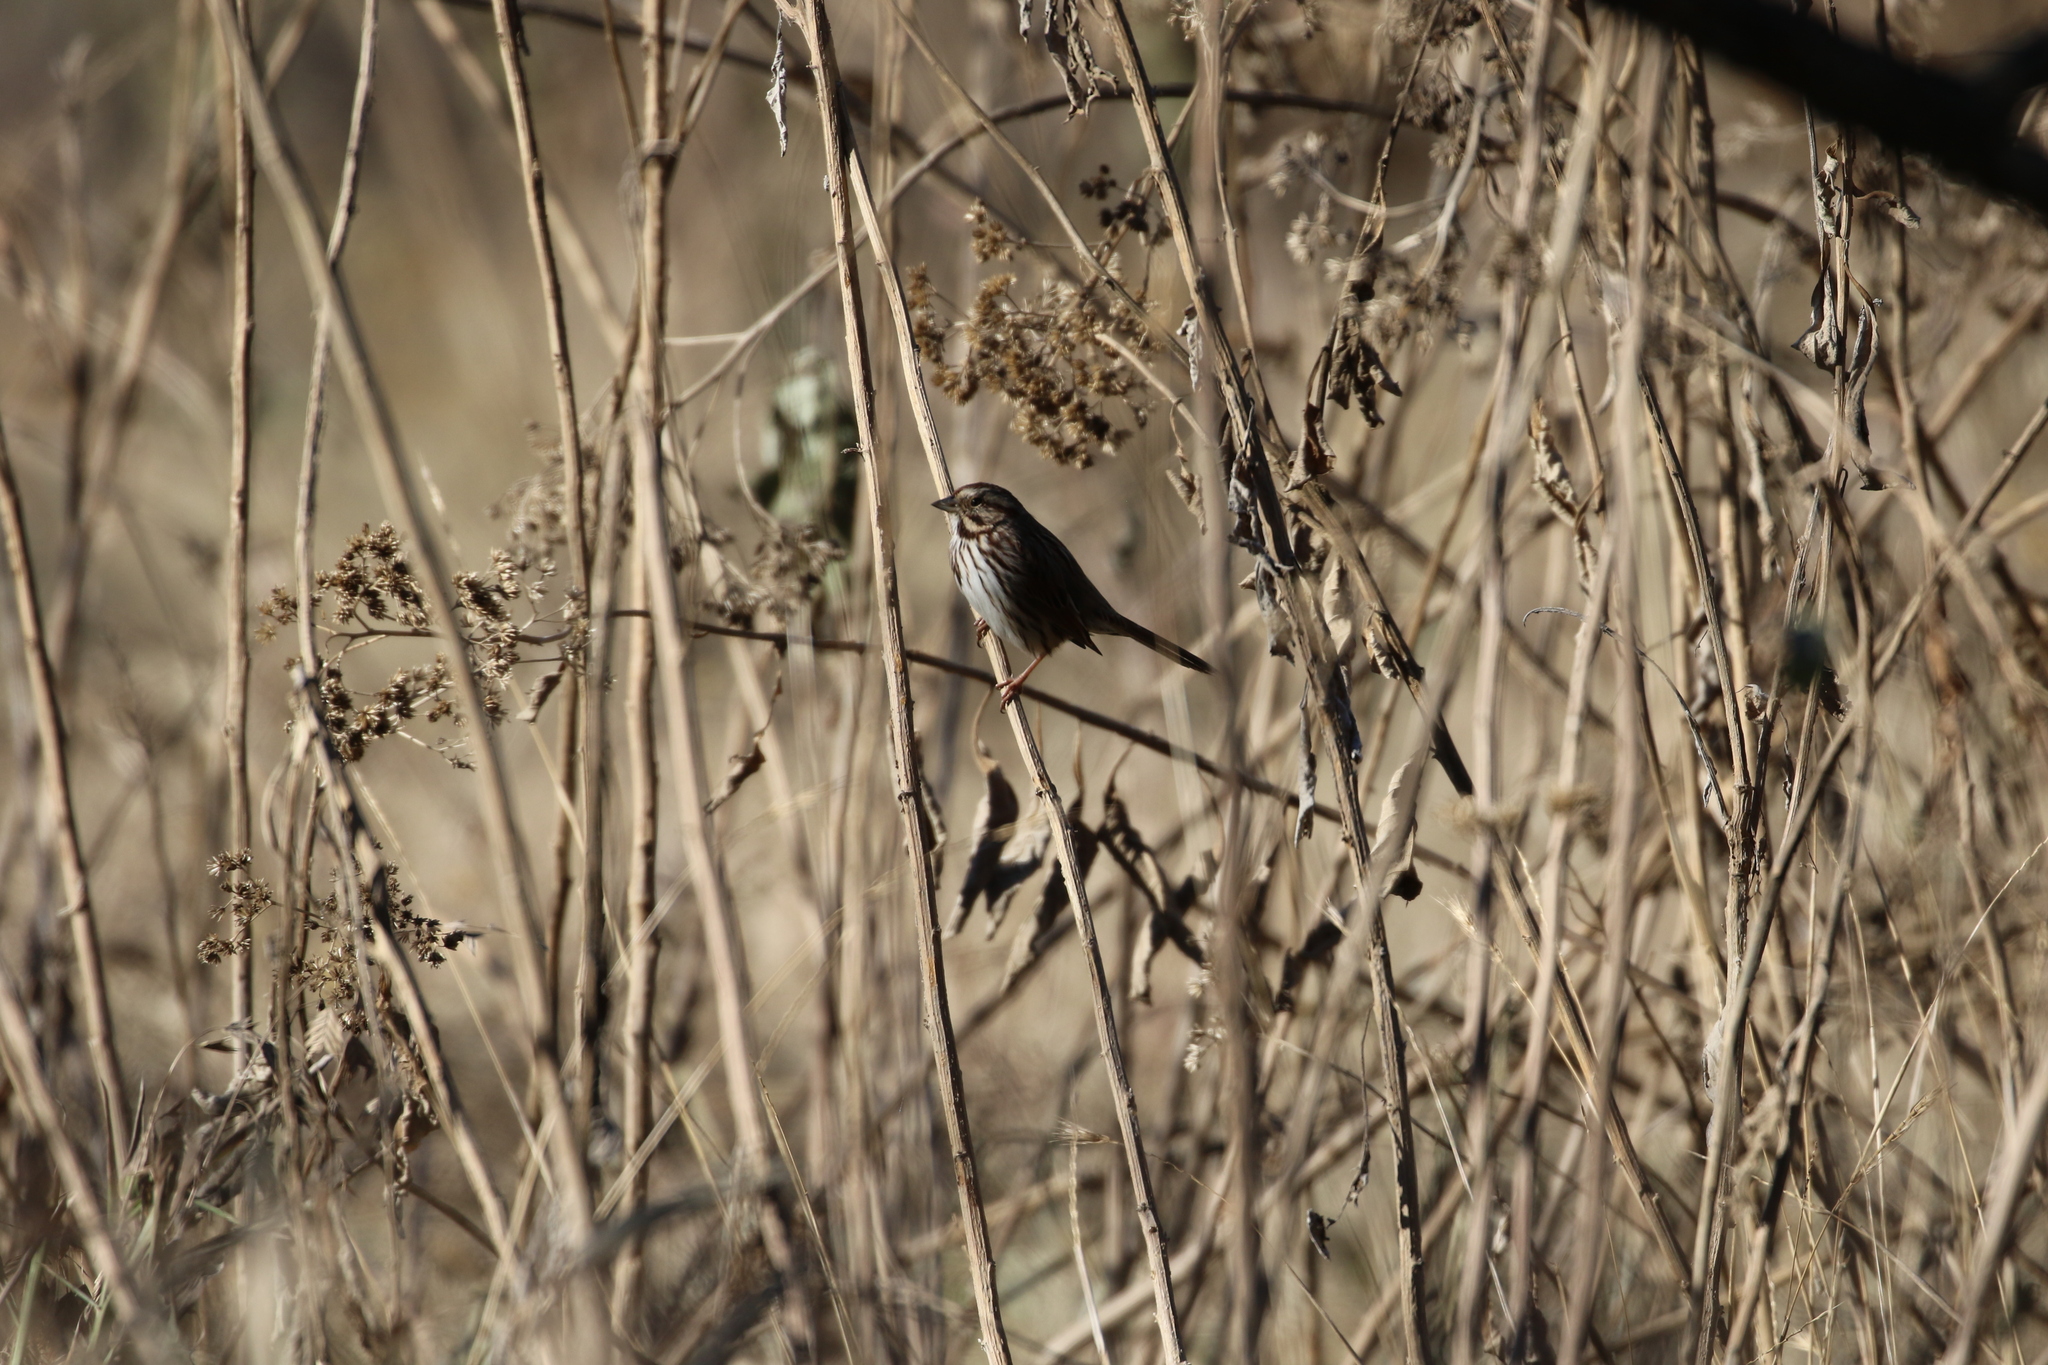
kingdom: Animalia
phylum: Chordata
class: Aves
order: Passeriformes
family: Passerellidae
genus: Melospiza
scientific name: Melospiza melodia
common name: Song sparrow
